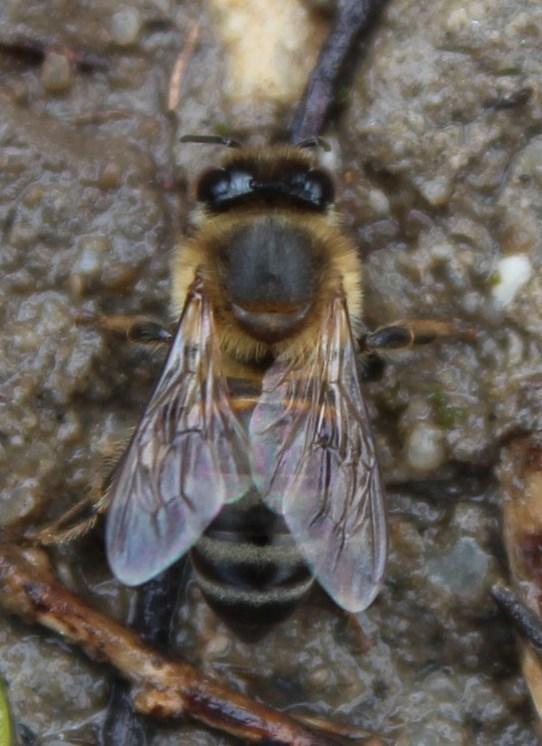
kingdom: Animalia
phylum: Arthropoda
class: Insecta
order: Hymenoptera
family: Apidae
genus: Apis
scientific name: Apis mellifera
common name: Honey bee
